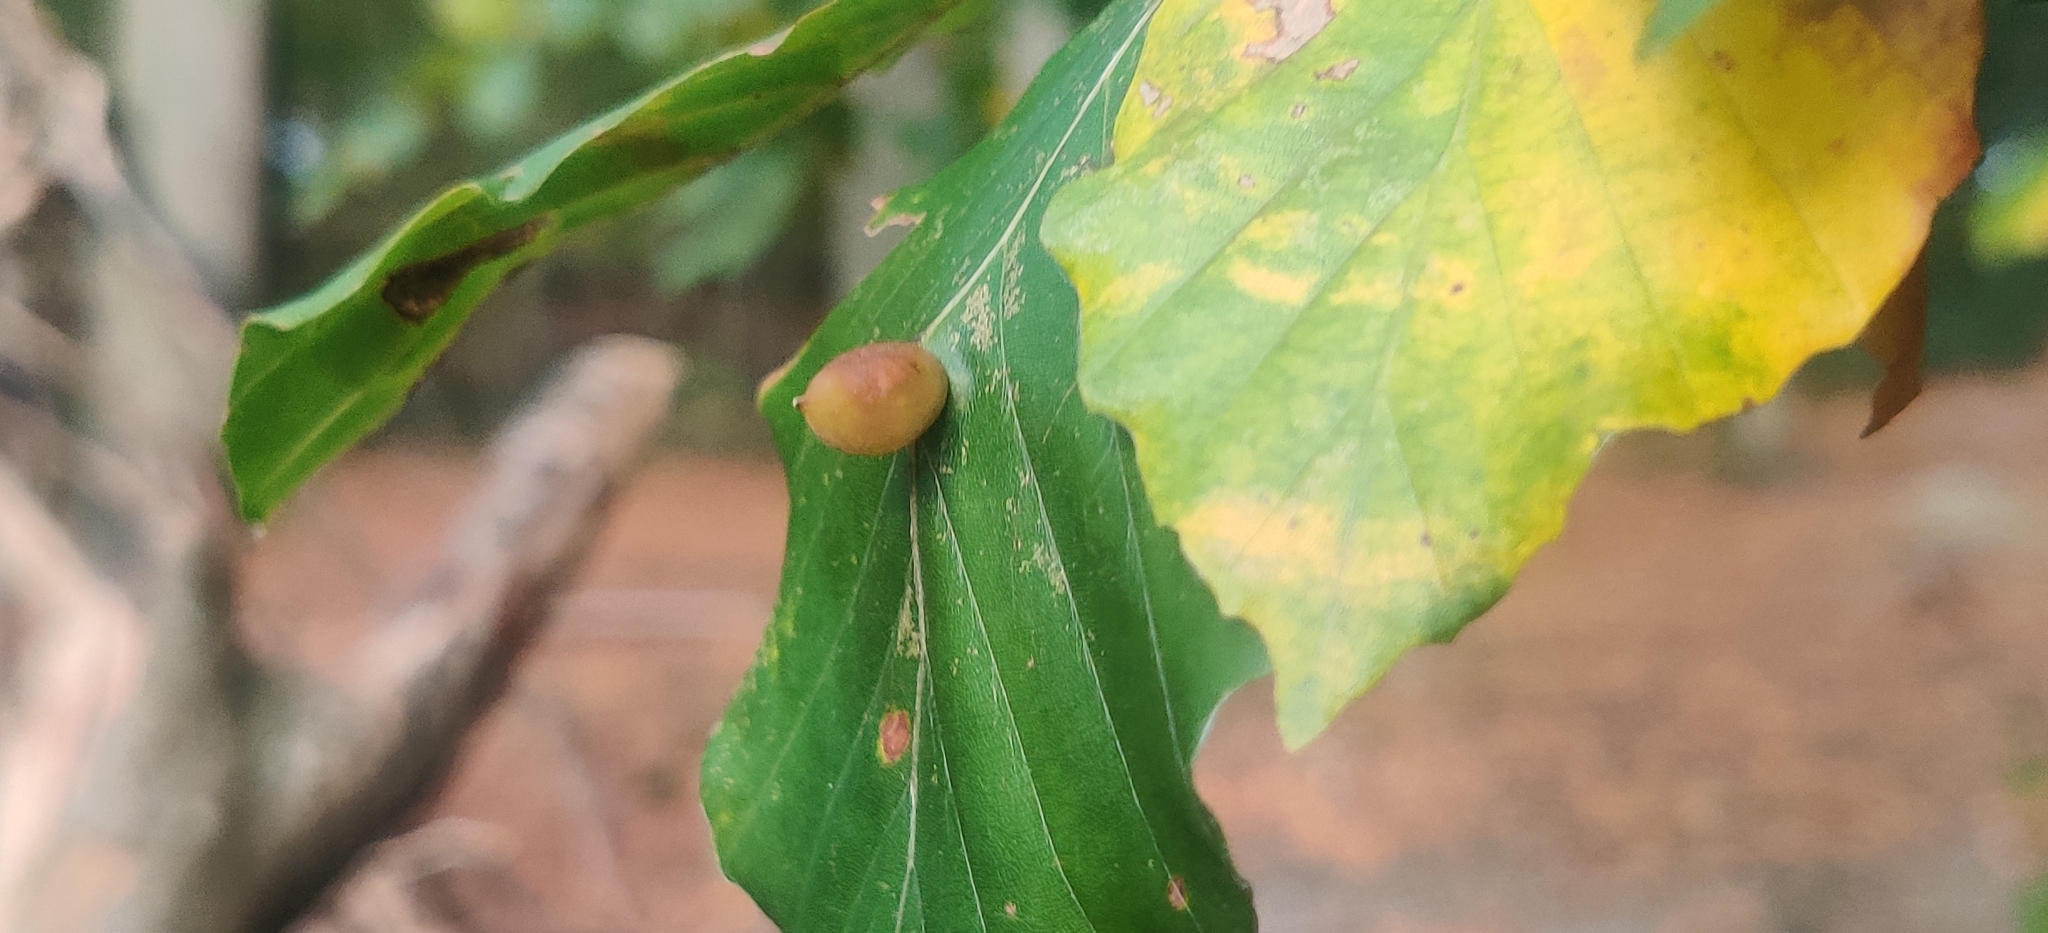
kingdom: Animalia
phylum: Arthropoda
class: Insecta
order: Diptera
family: Cecidomyiidae
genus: Mikiola
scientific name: Mikiola fagi
